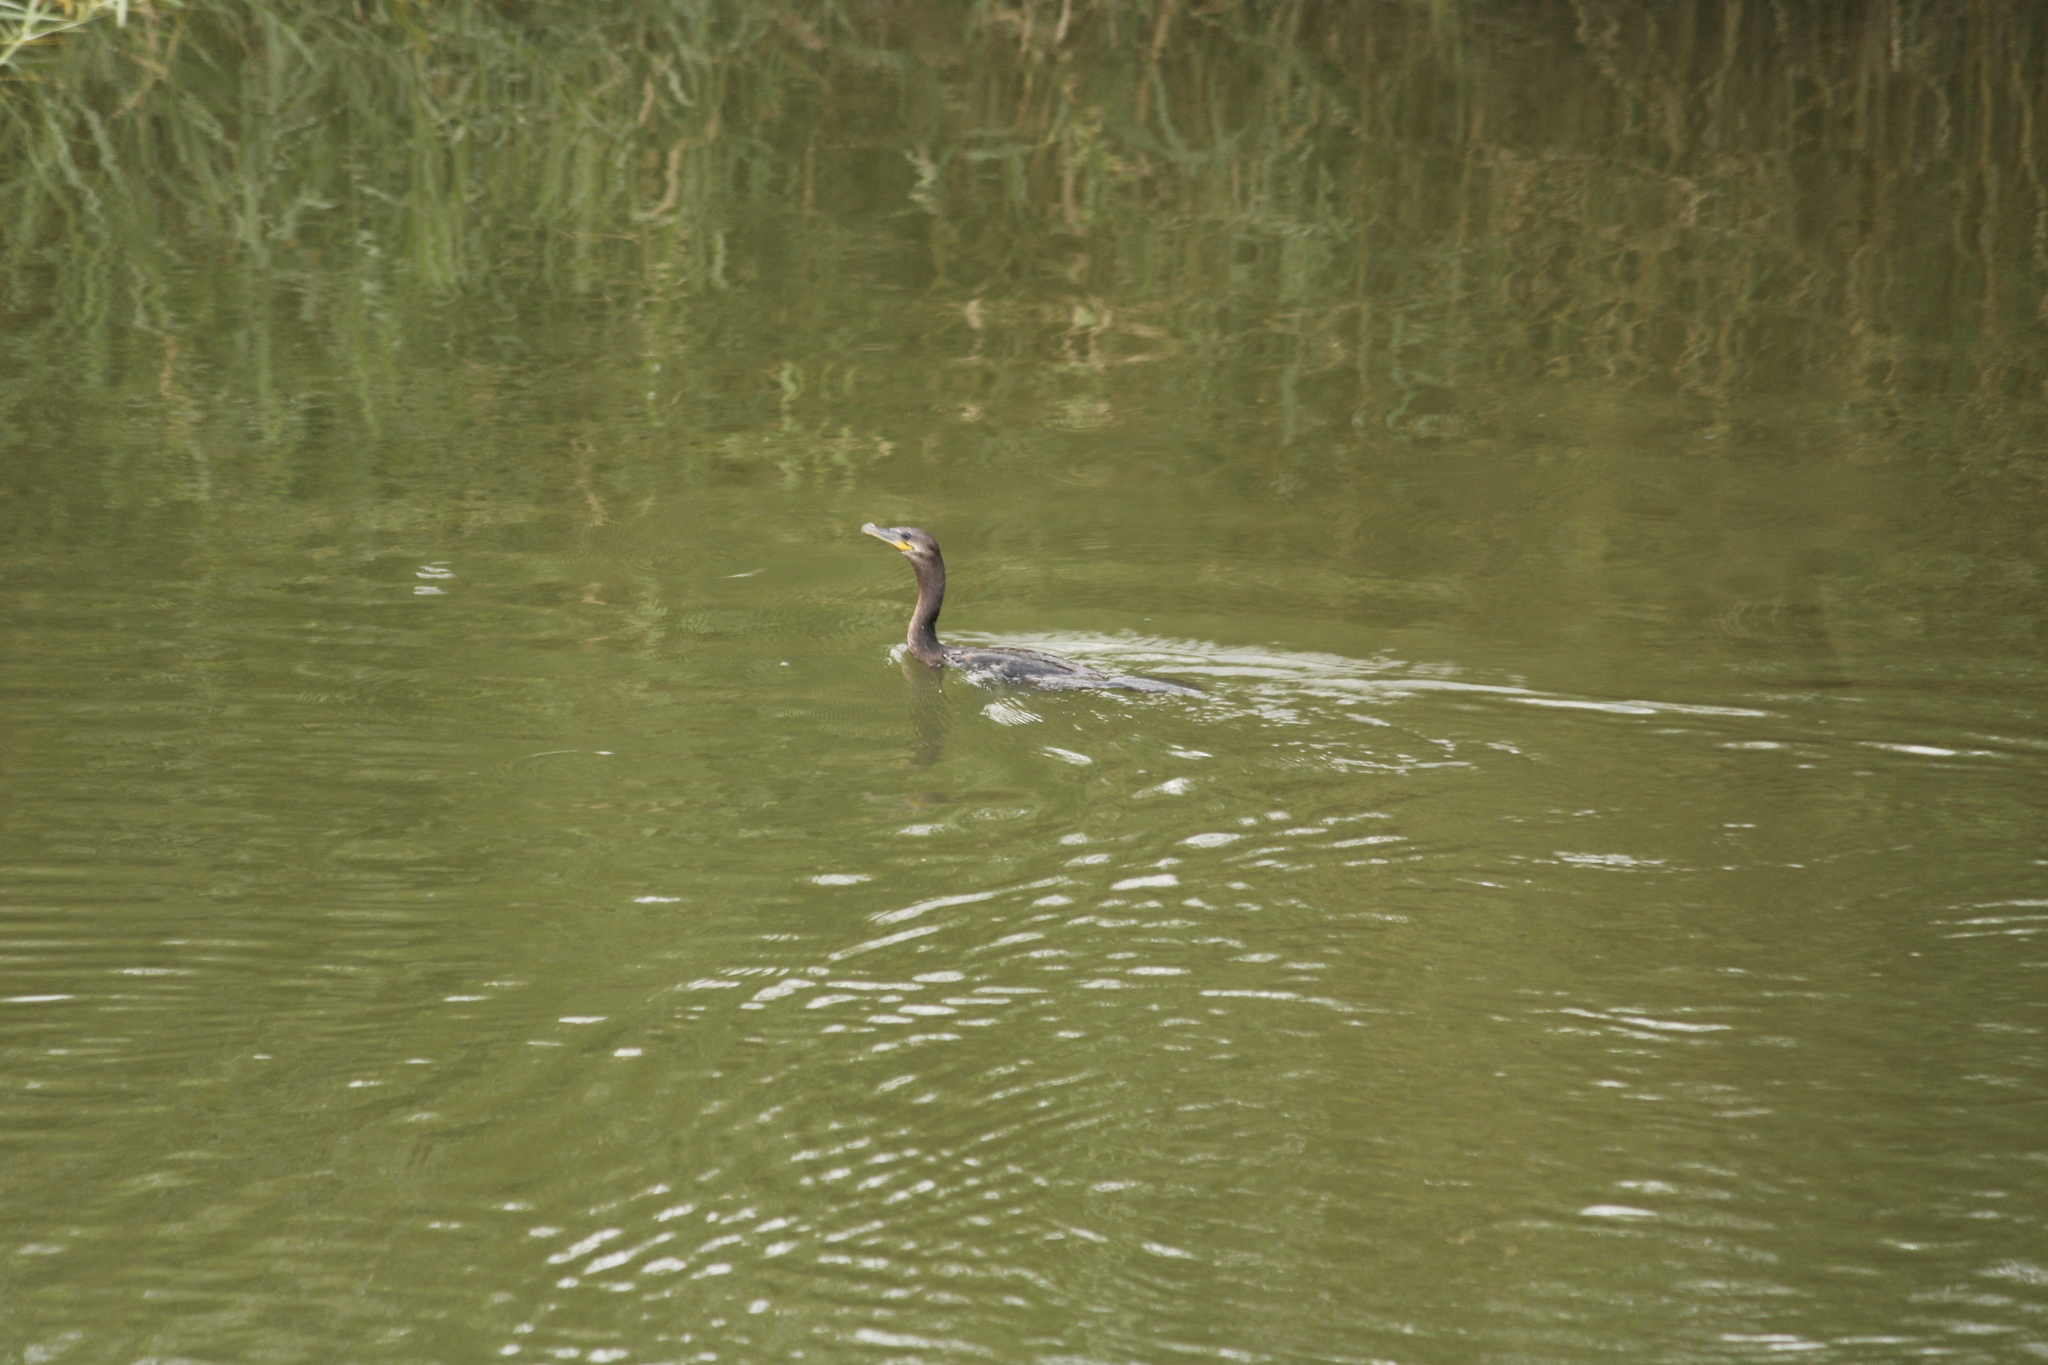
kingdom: Animalia
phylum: Chordata
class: Aves
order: Suliformes
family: Phalacrocoracidae
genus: Phalacrocorax
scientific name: Phalacrocorax brasilianus
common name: Neotropic cormorant
